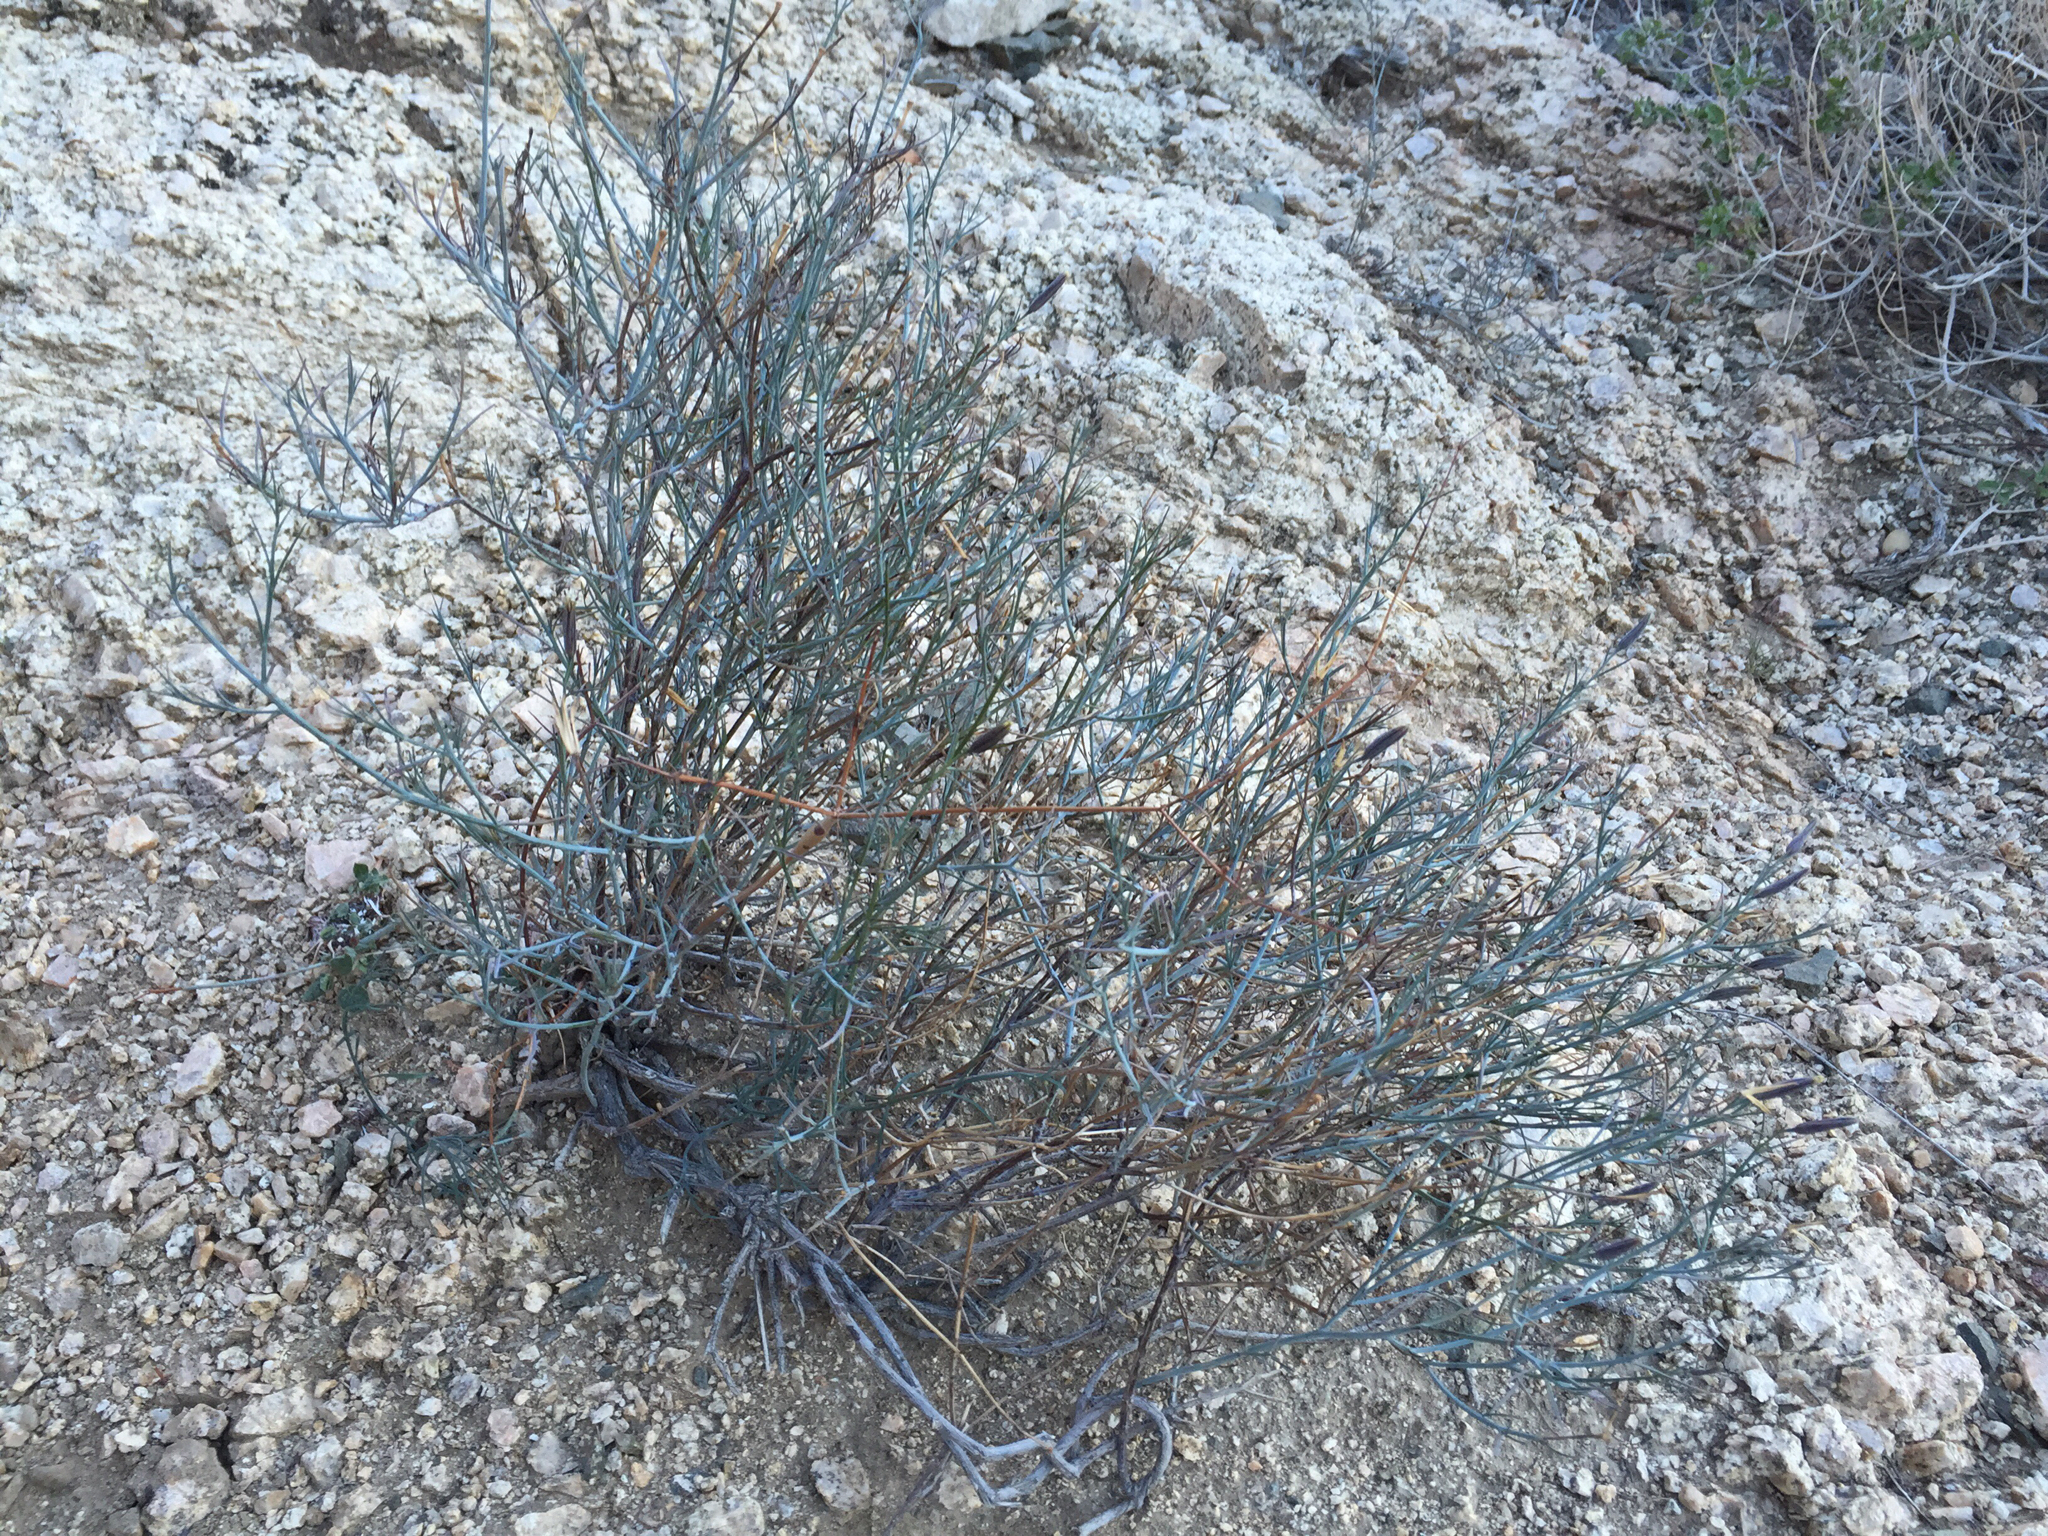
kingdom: Plantae
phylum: Tracheophyta
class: Magnoliopsida
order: Asterales
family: Asteraceae
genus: Porophyllum
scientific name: Porophyllum gracile
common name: Odora
